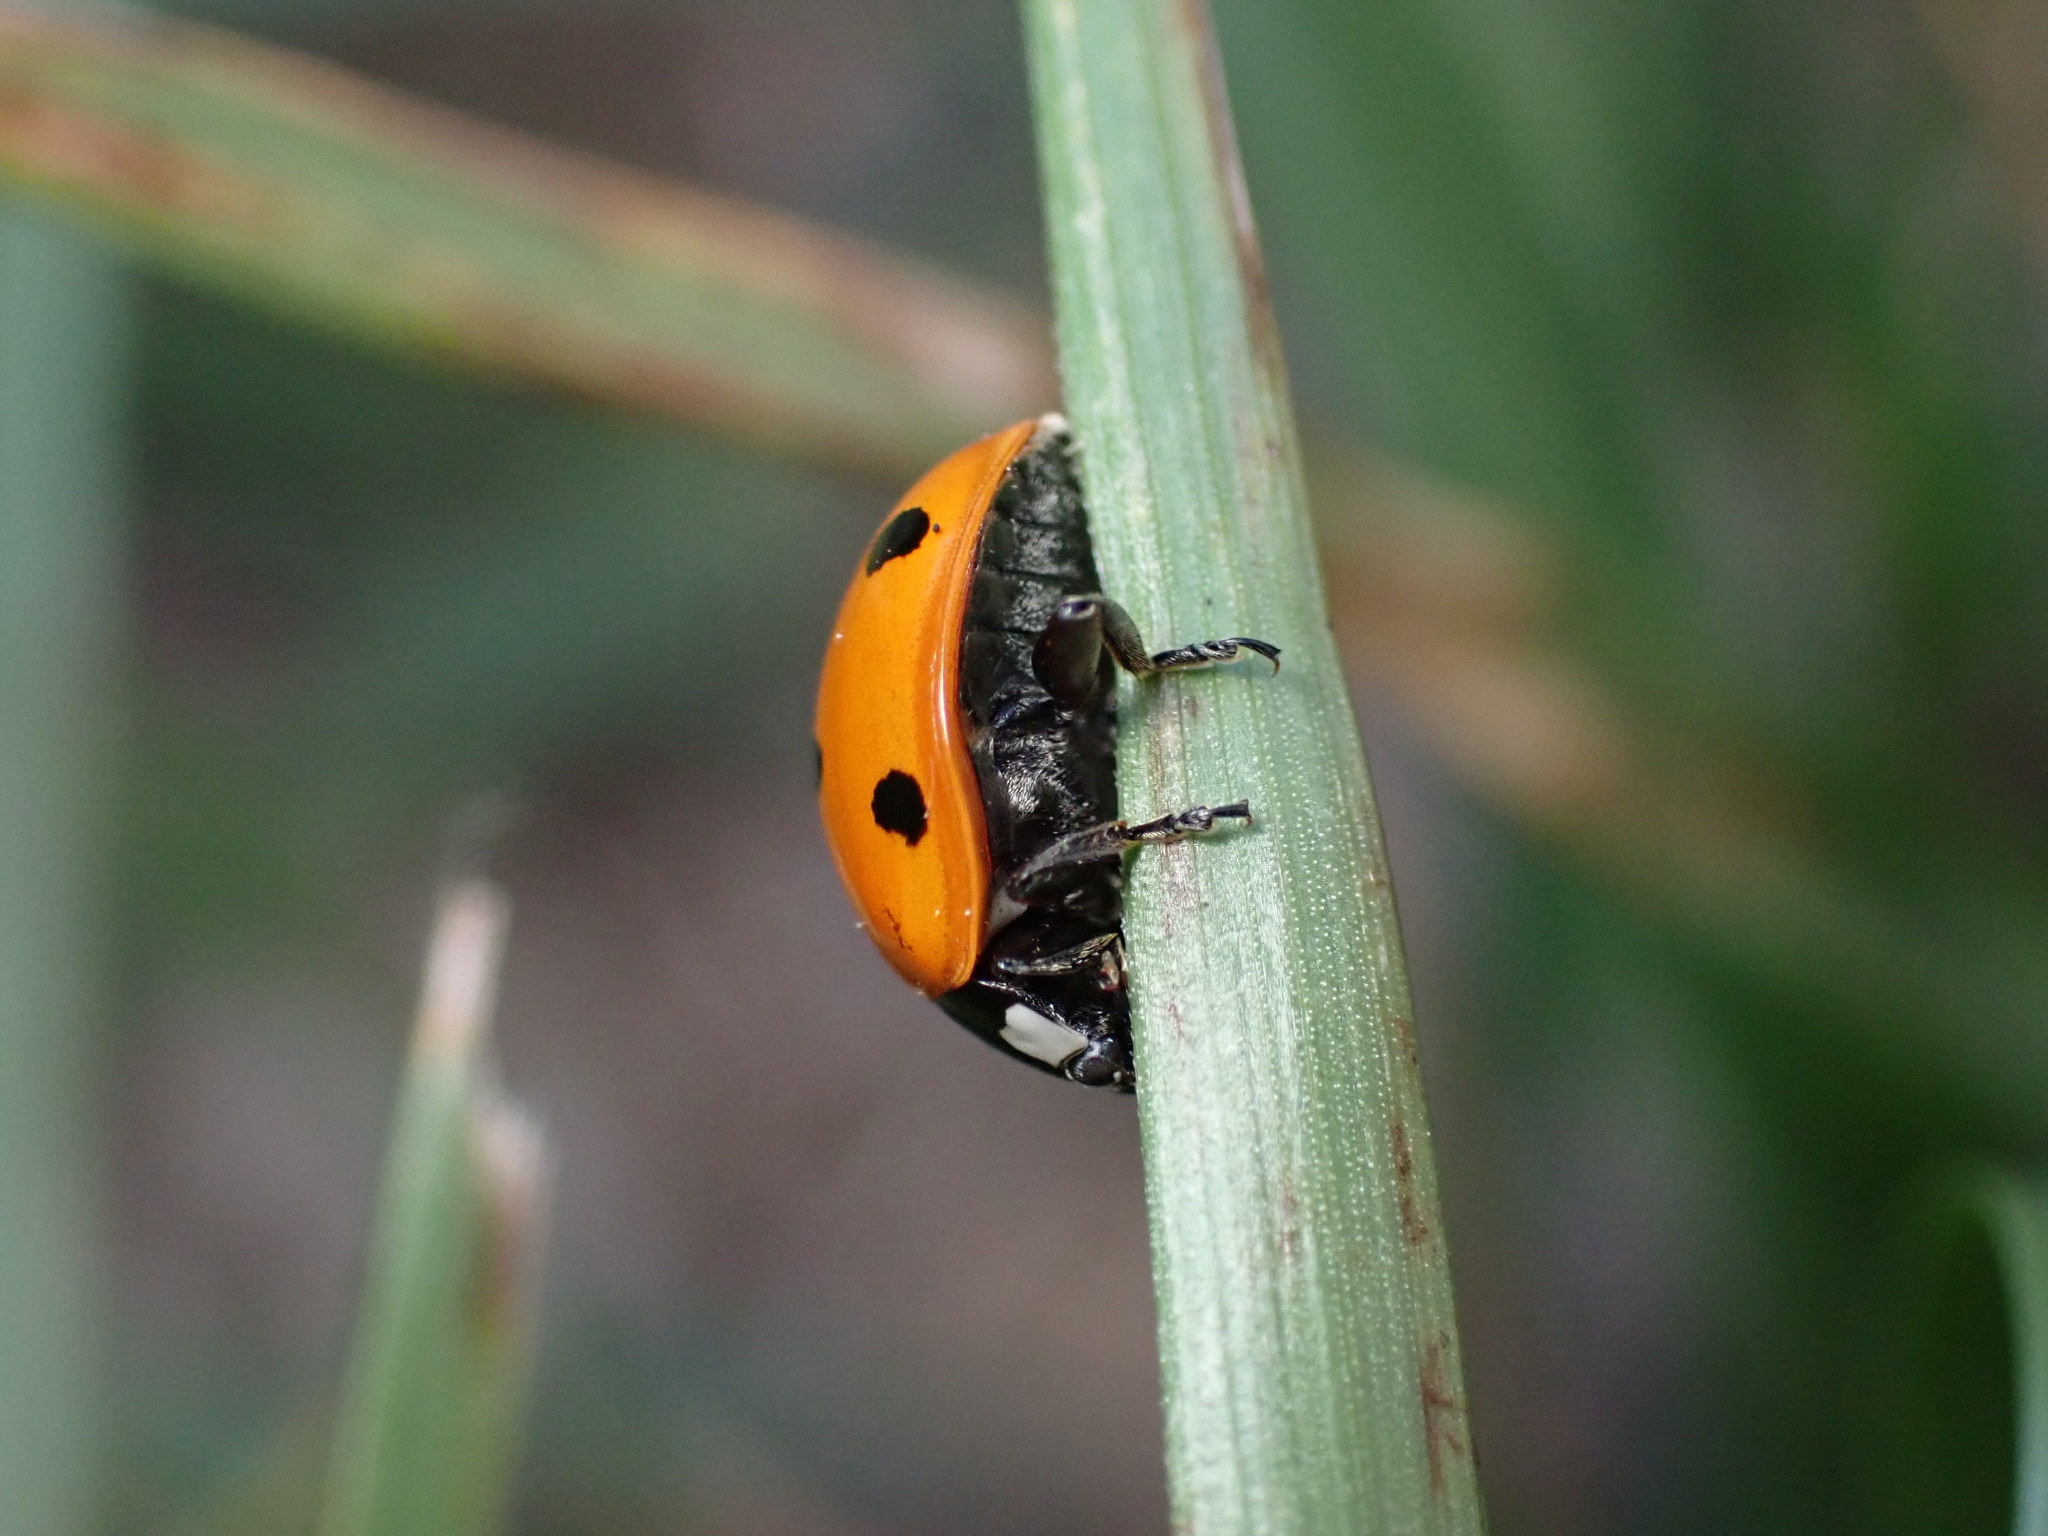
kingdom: Animalia
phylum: Arthropoda
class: Insecta
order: Coleoptera
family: Coccinellidae
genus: Coccinella
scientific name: Coccinella septempunctata
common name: Sevenspotted lady beetle
